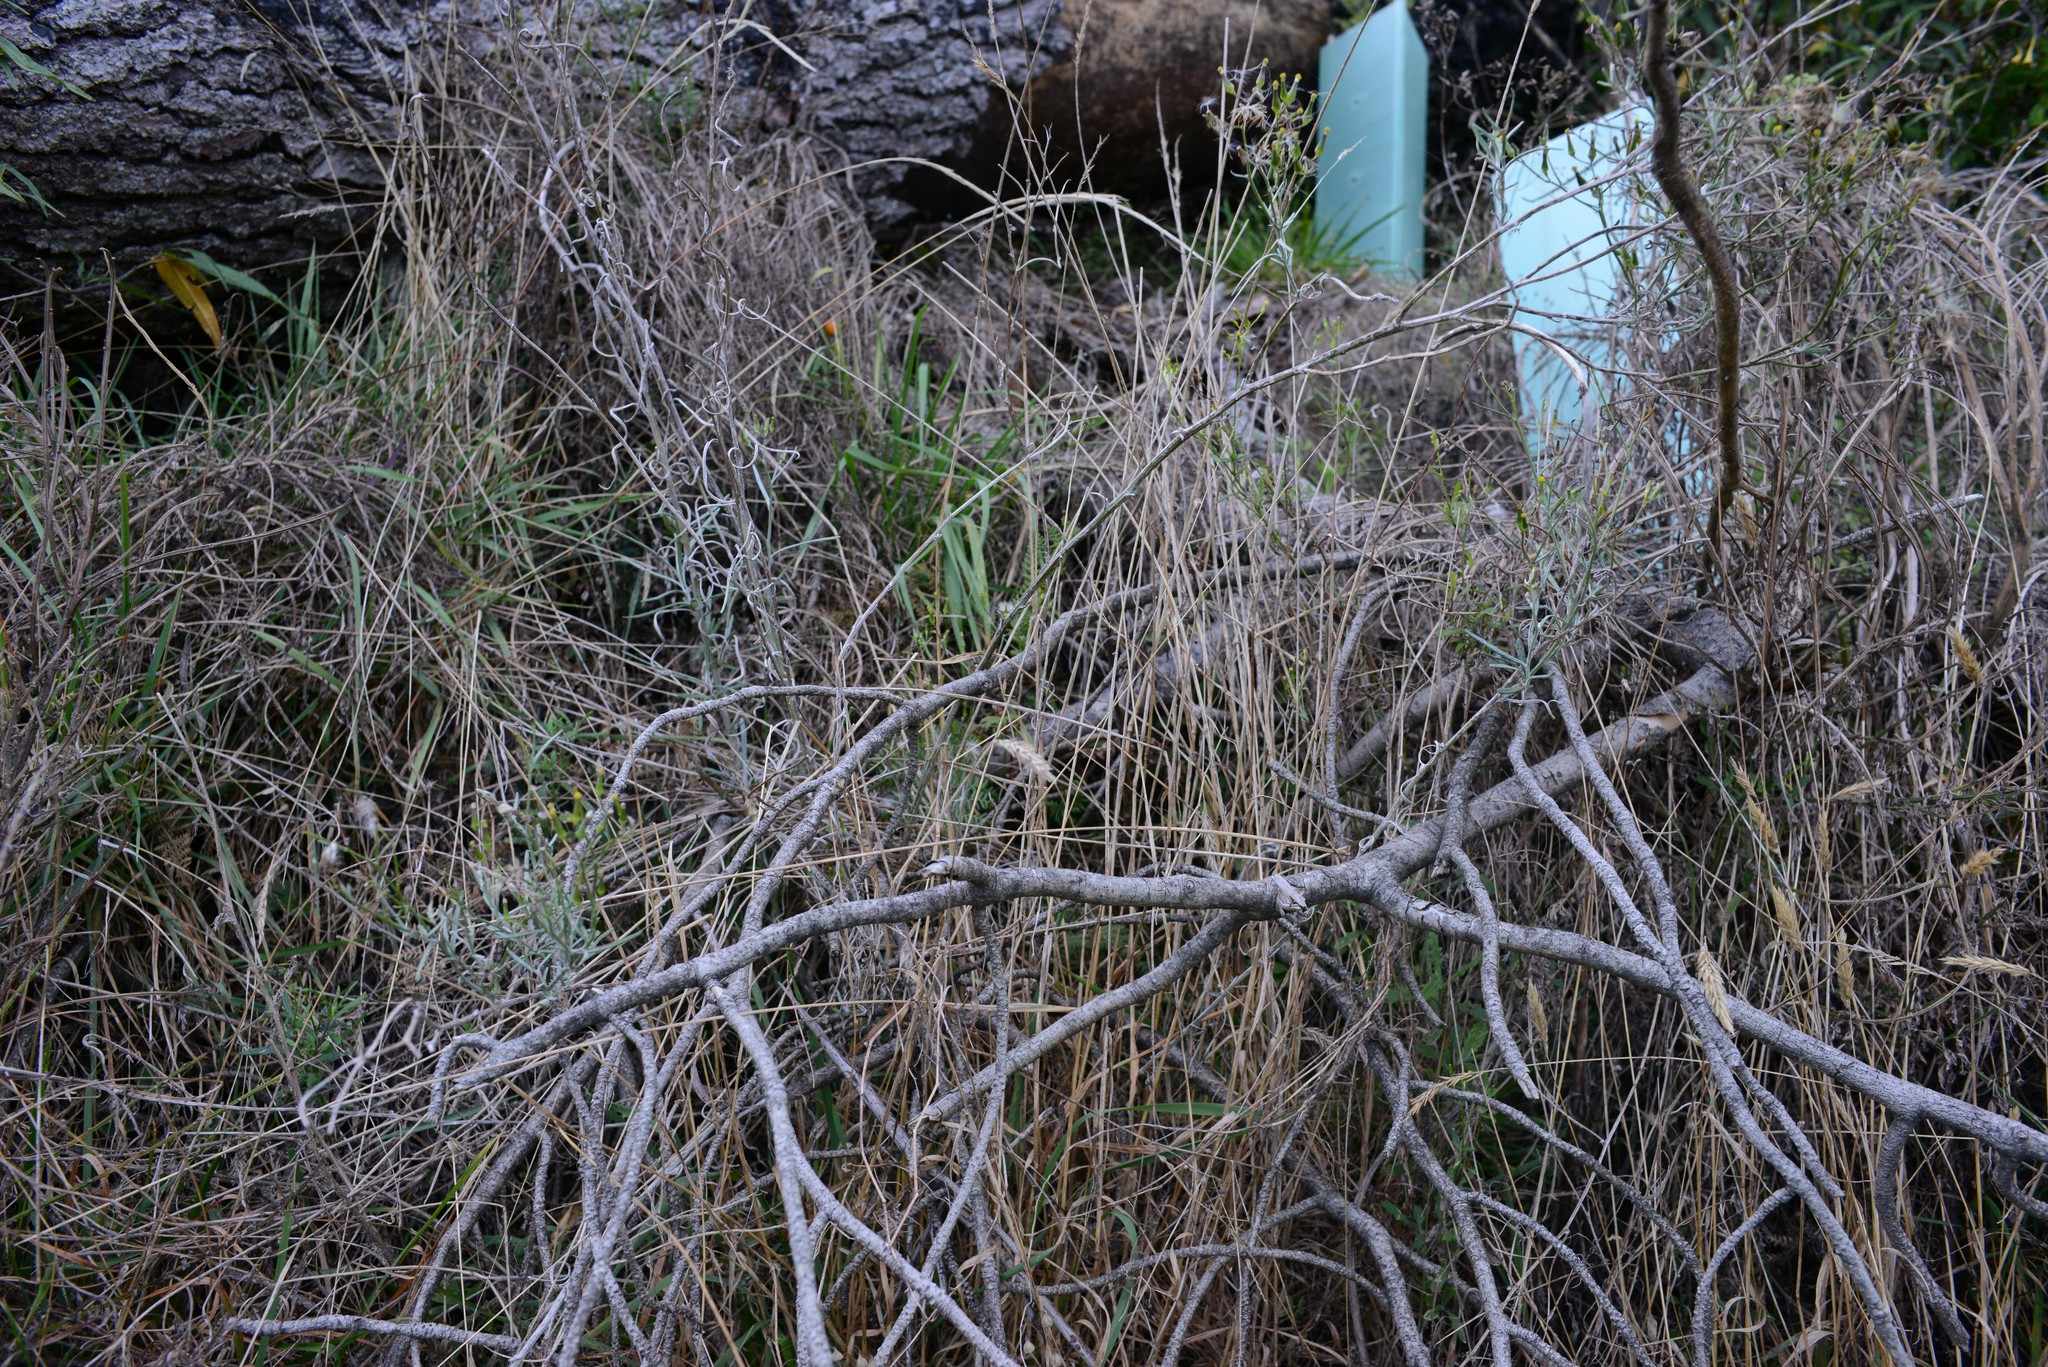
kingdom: Plantae
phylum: Tracheophyta
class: Magnoliopsida
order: Asterales
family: Asteraceae
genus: Senecio
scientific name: Senecio quadridentatus
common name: Cotton fireweed
